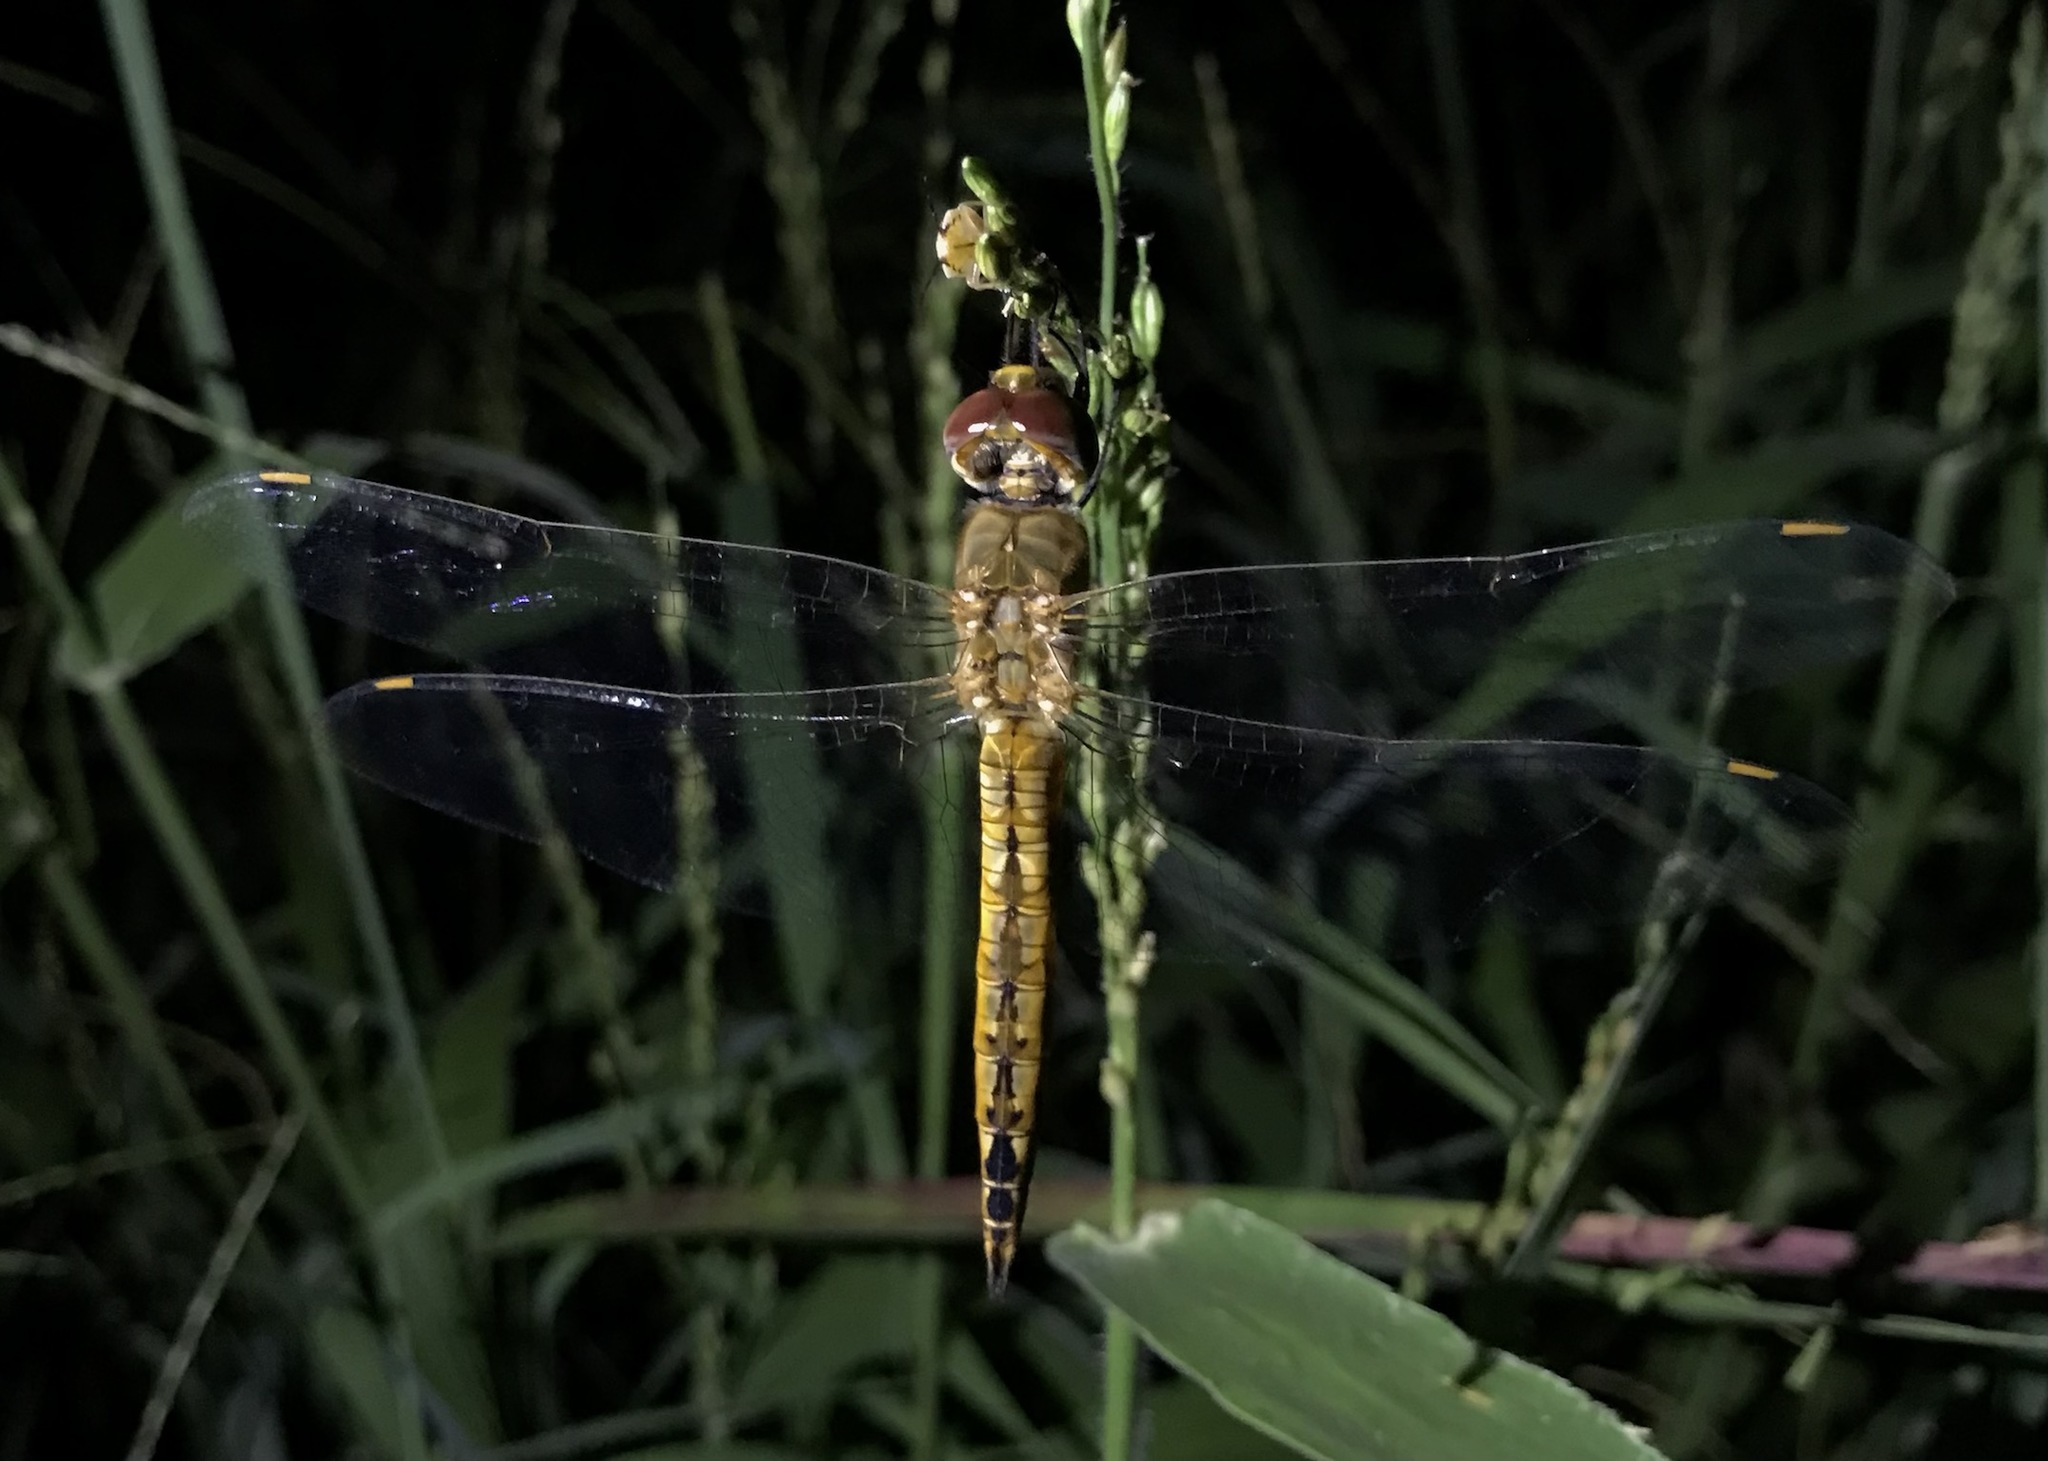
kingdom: Animalia
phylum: Arthropoda
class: Insecta
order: Odonata
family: Libellulidae
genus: Pantala
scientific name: Pantala flavescens
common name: Wandering glider
